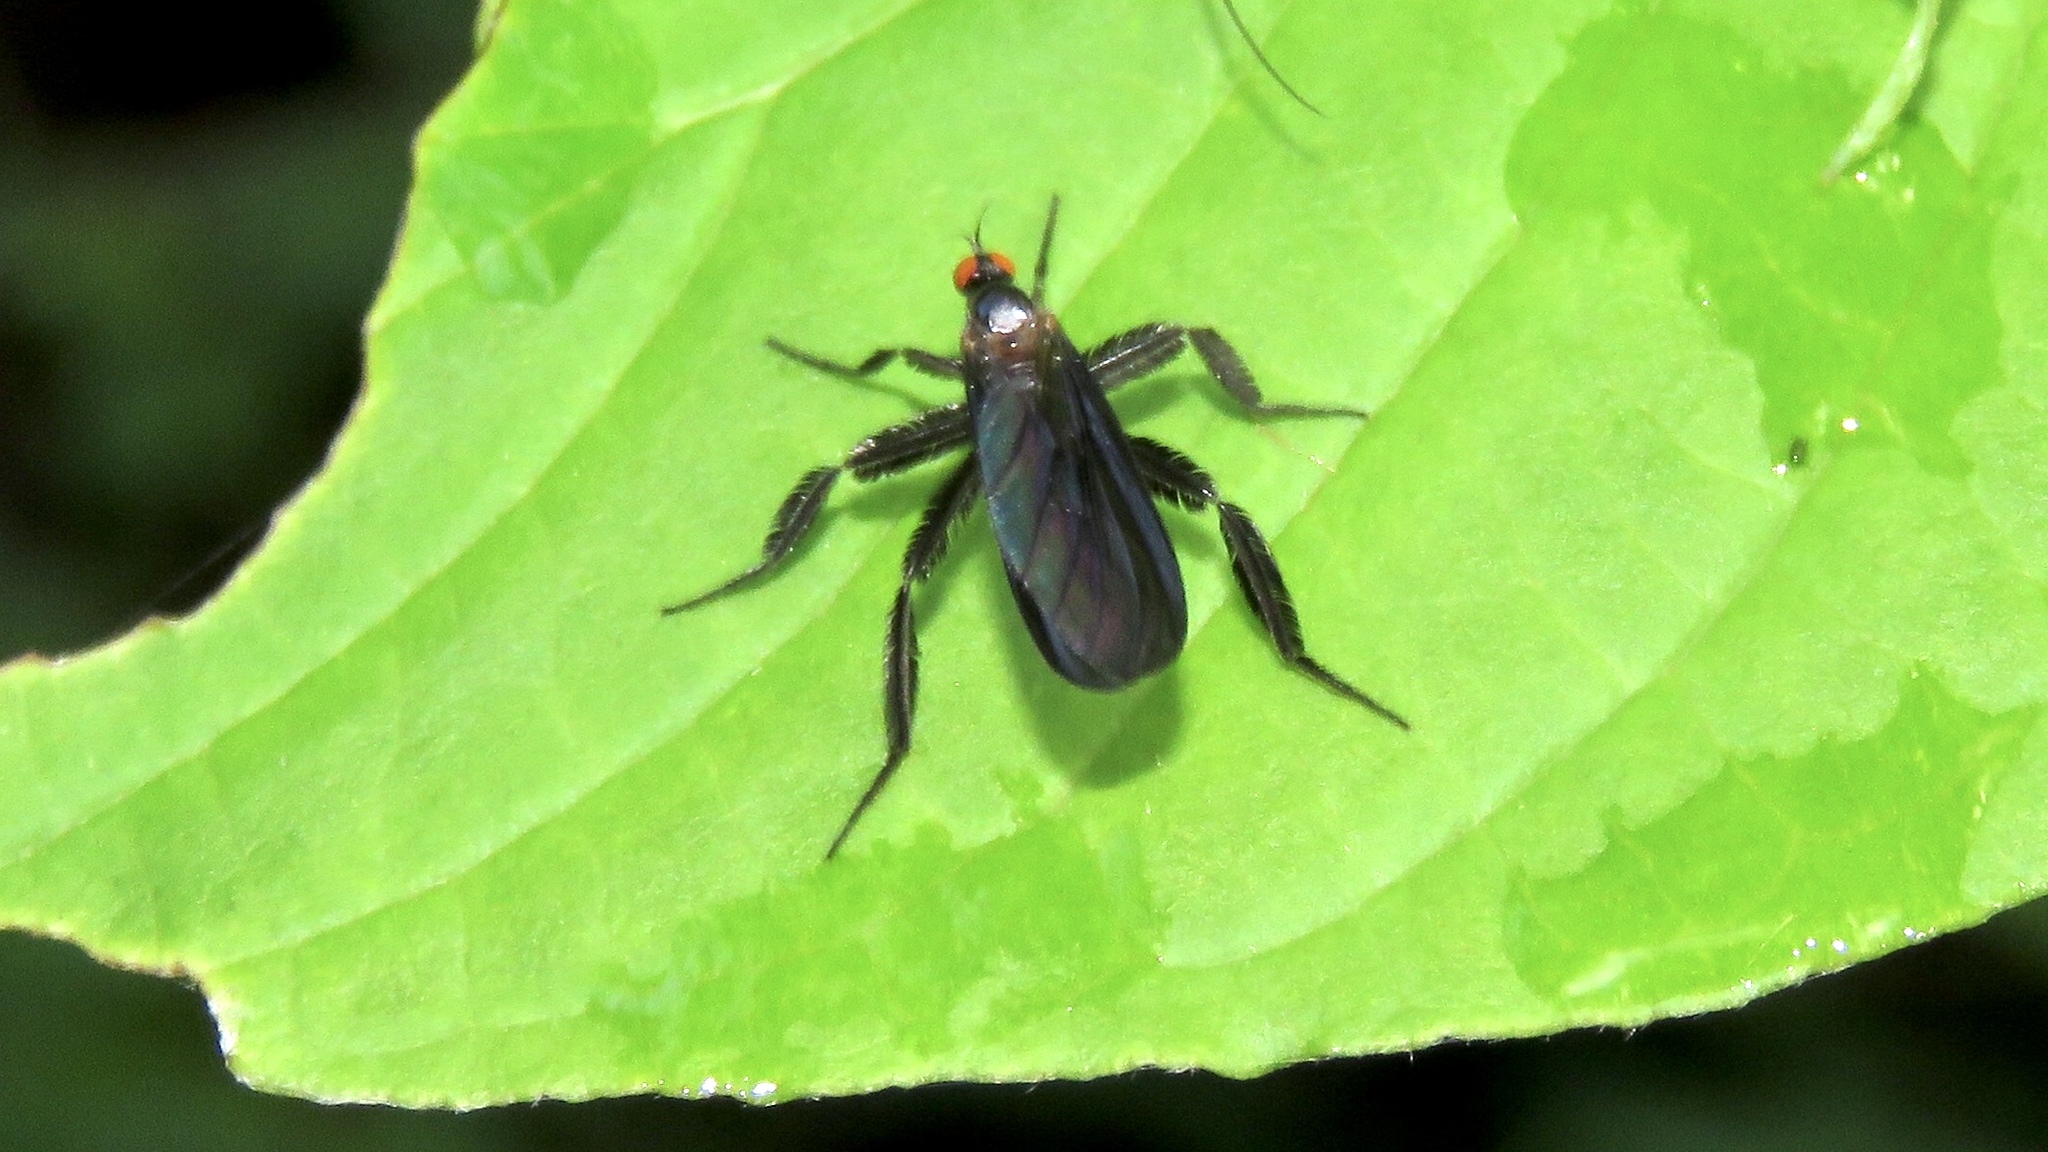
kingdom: Animalia
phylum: Arthropoda
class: Insecta
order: Diptera
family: Empididae
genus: Rhamphomyia
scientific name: Rhamphomyia longicauda
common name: Long-tailed dance fly
